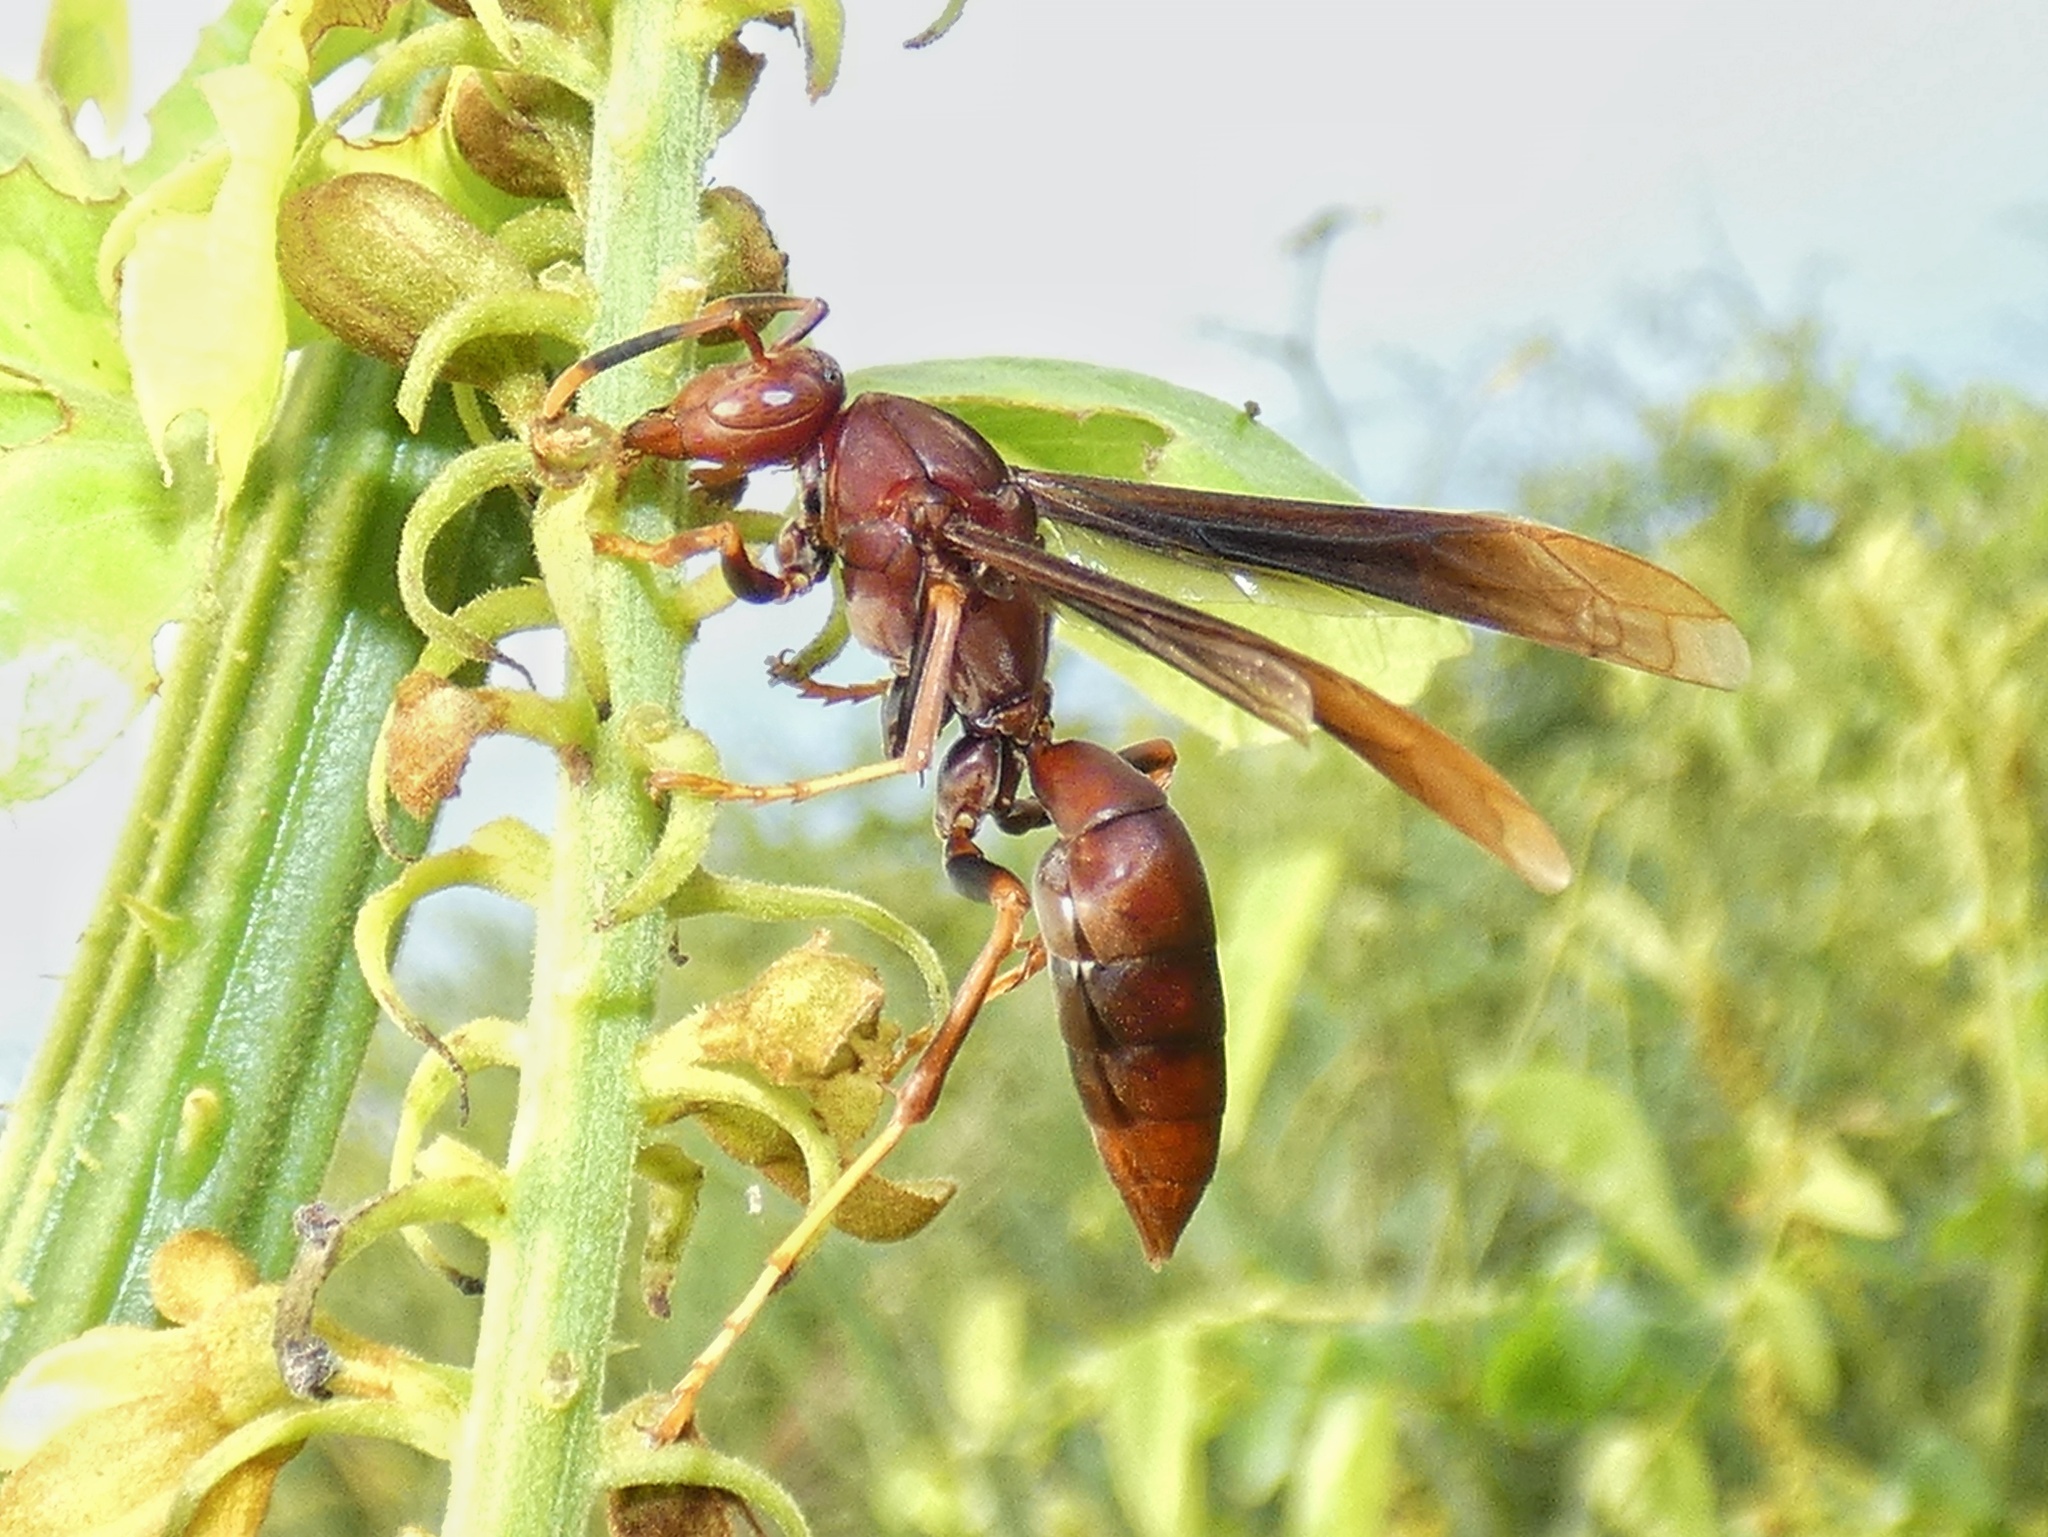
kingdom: Animalia
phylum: Arthropoda
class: Insecta
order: Hymenoptera
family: Eumenidae
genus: Polistes
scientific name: Polistes lanio
